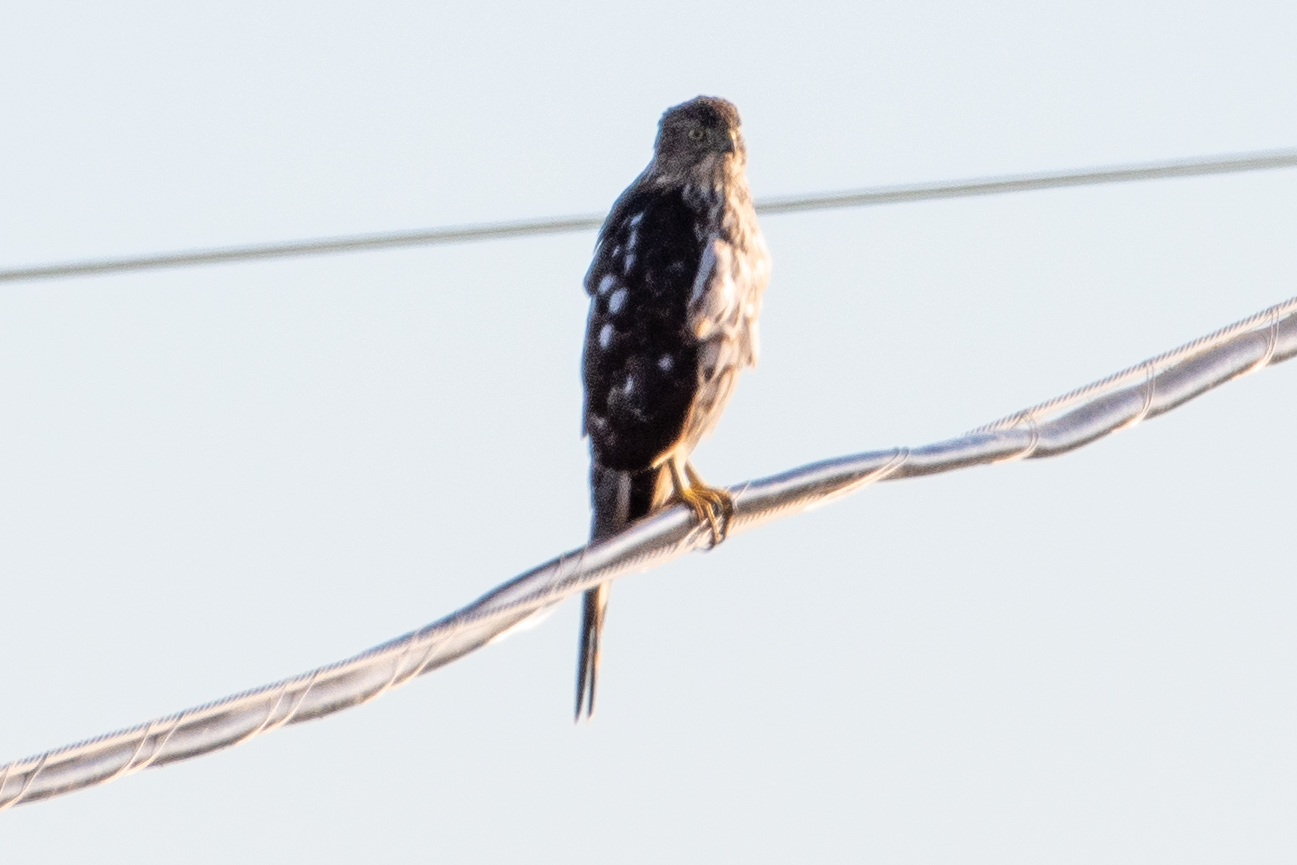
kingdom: Animalia
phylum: Chordata
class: Aves
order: Accipitriformes
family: Accipitridae
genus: Accipiter
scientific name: Accipiter cooperii
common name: Cooper's hawk
